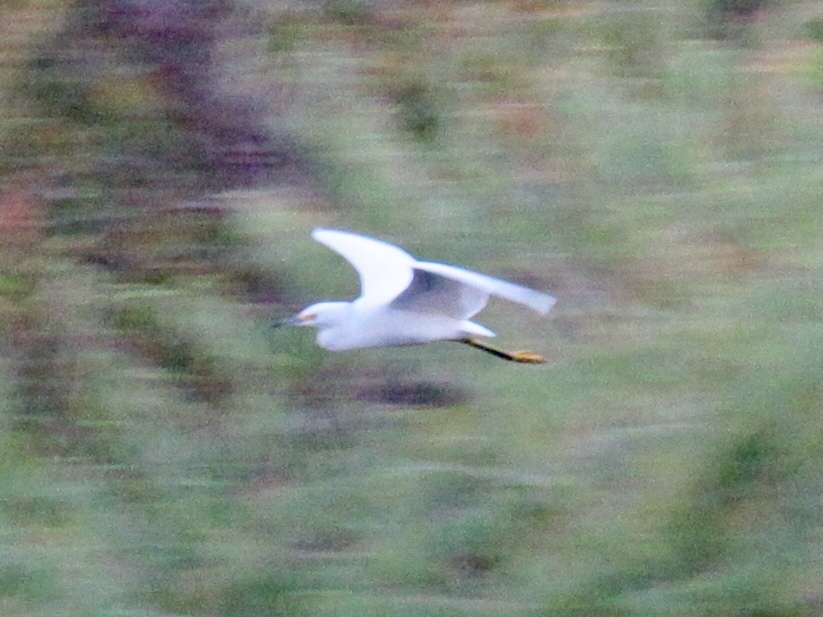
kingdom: Animalia
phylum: Chordata
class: Aves
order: Pelecaniformes
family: Ardeidae
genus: Egretta
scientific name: Egretta thula
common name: Snowy egret
